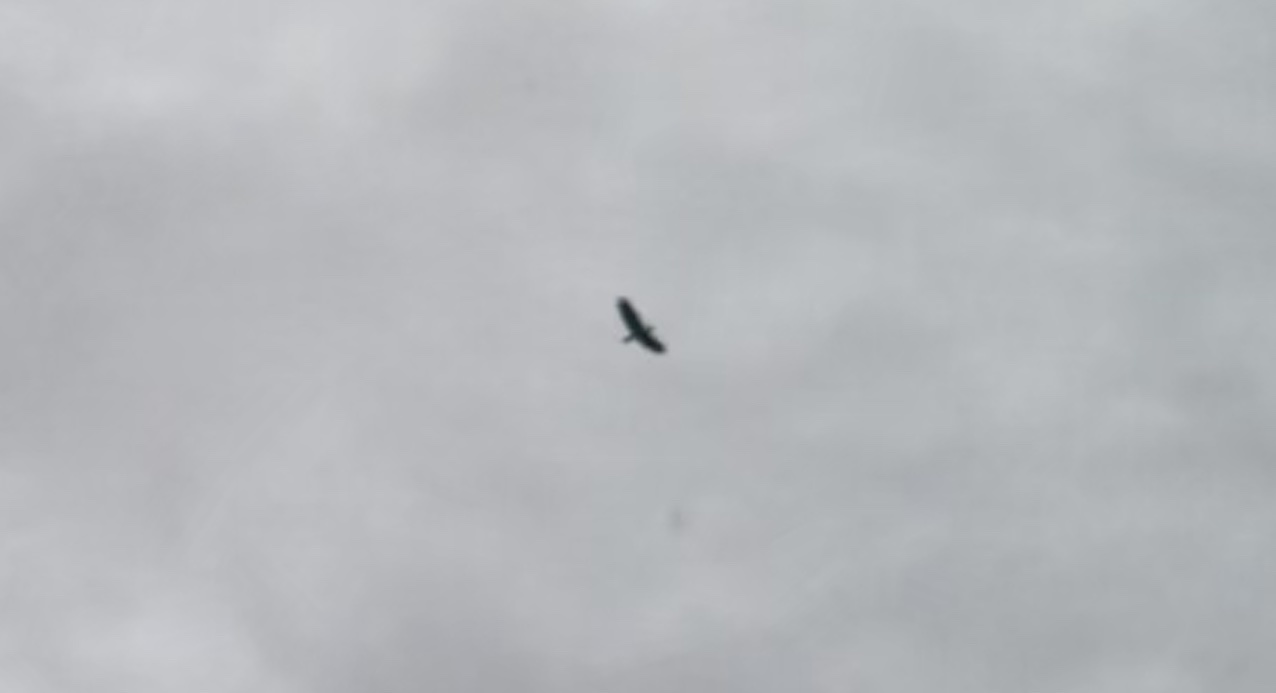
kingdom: Animalia
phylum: Chordata
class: Aves
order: Accipitriformes
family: Accipitridae
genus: Haliaeetus
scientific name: Haliaeetus leucocephalus
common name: Bald eagle
